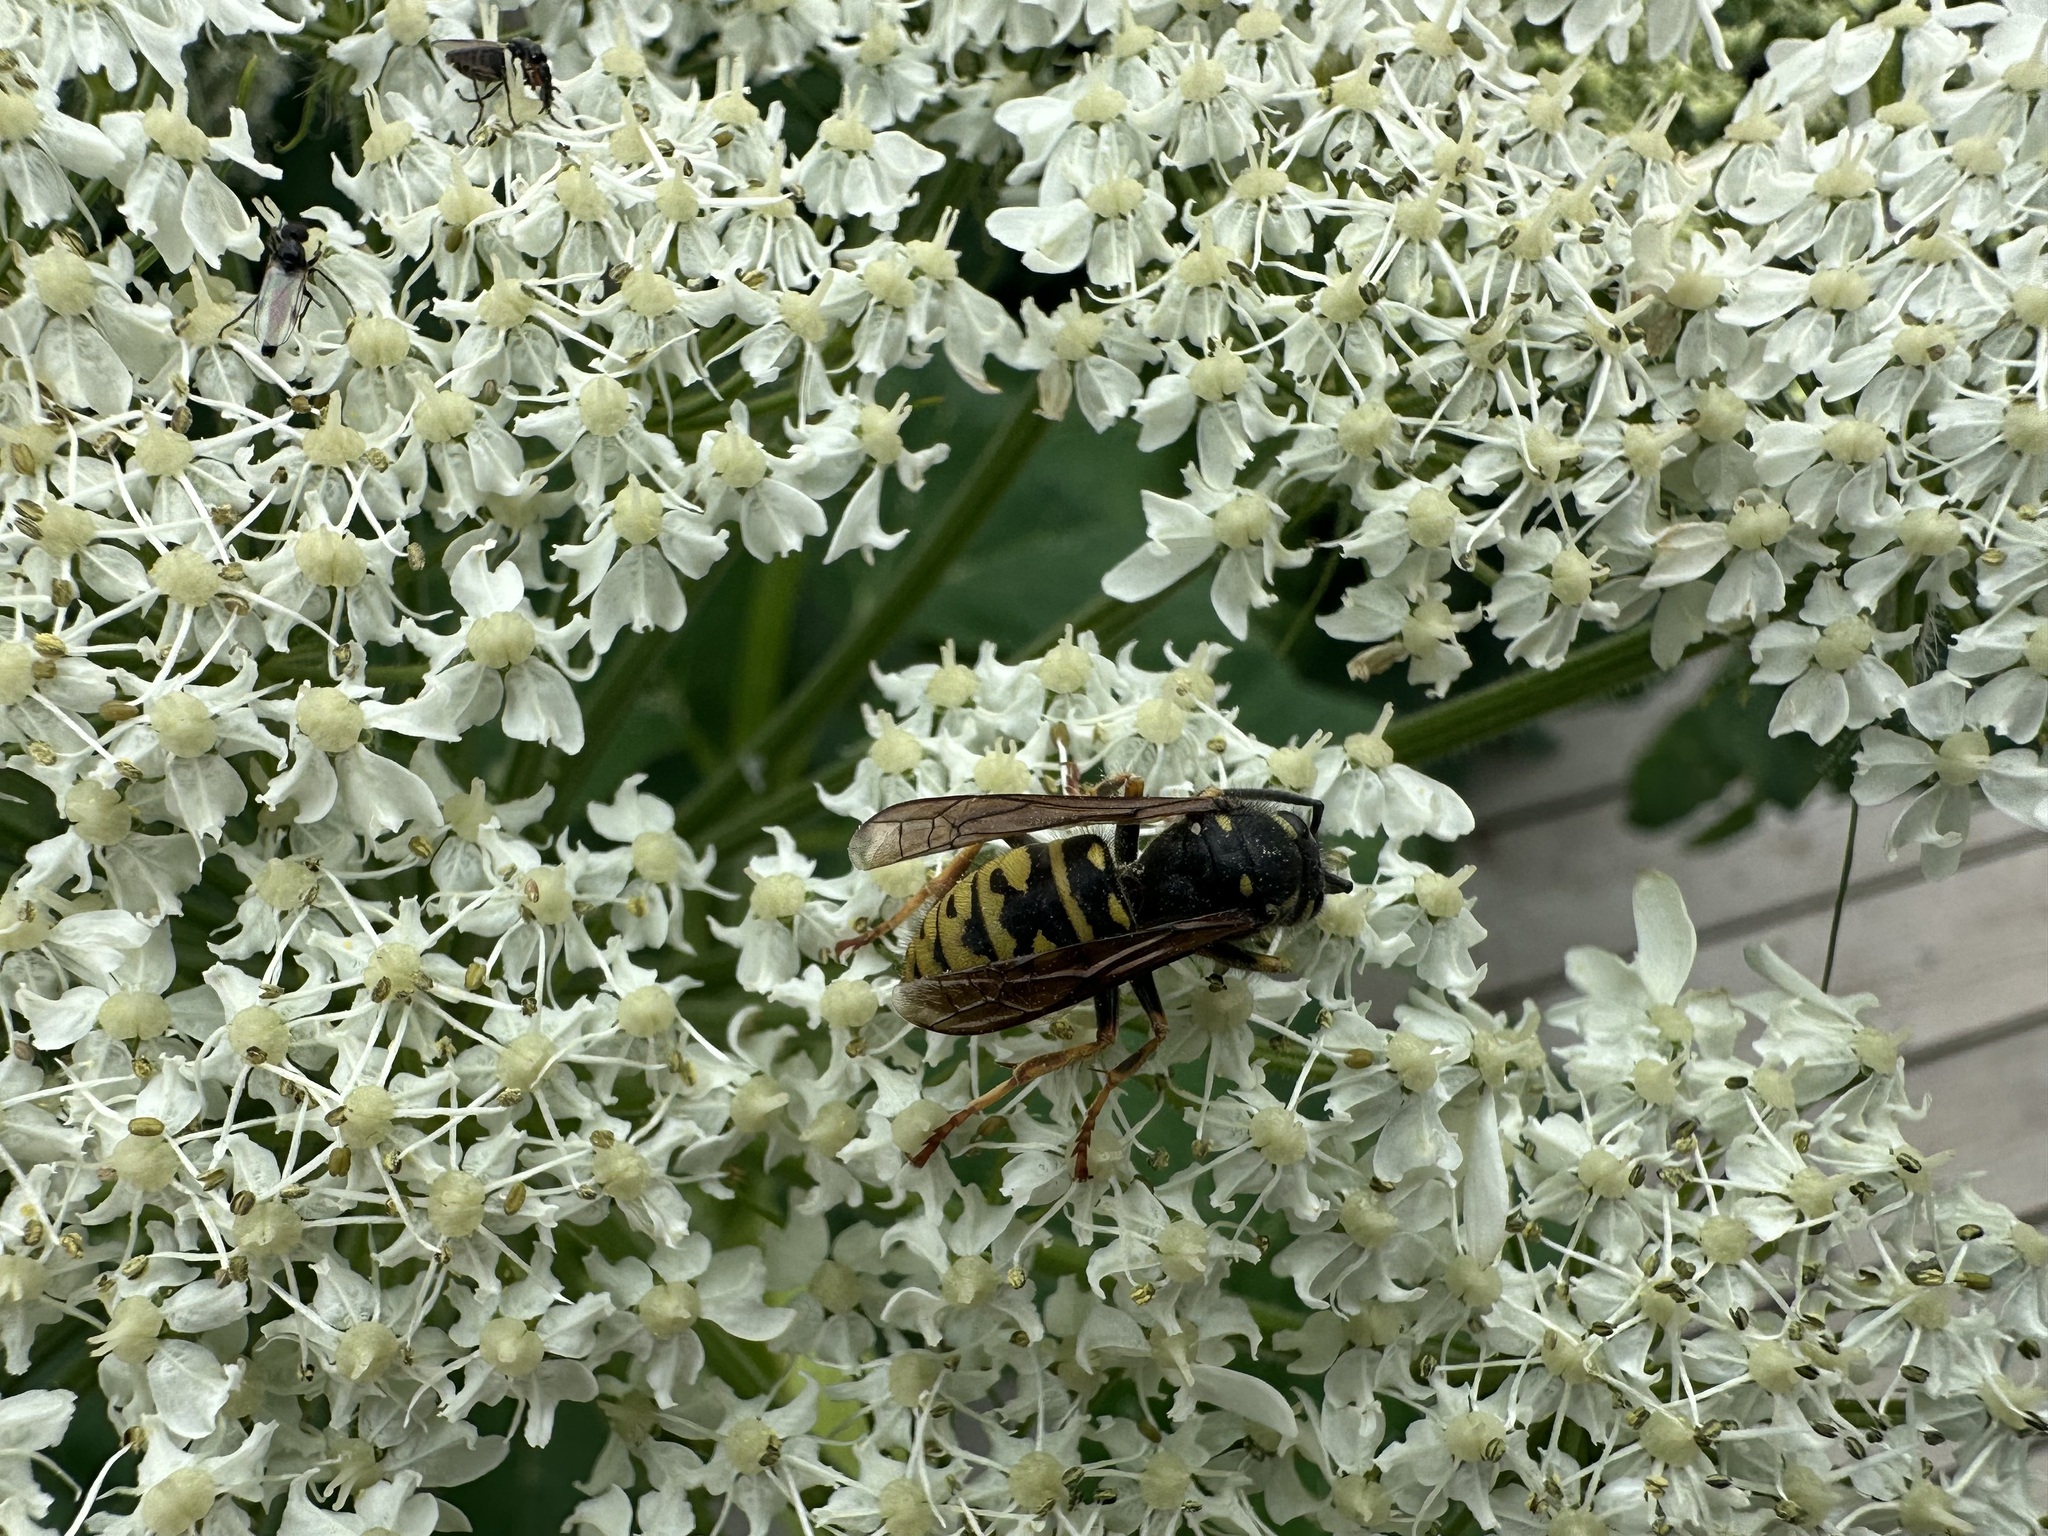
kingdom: Animalia
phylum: Arthropoda
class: Insecta
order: Hymenoptera
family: Vespidae
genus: Vespula
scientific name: Vespula infernalis
